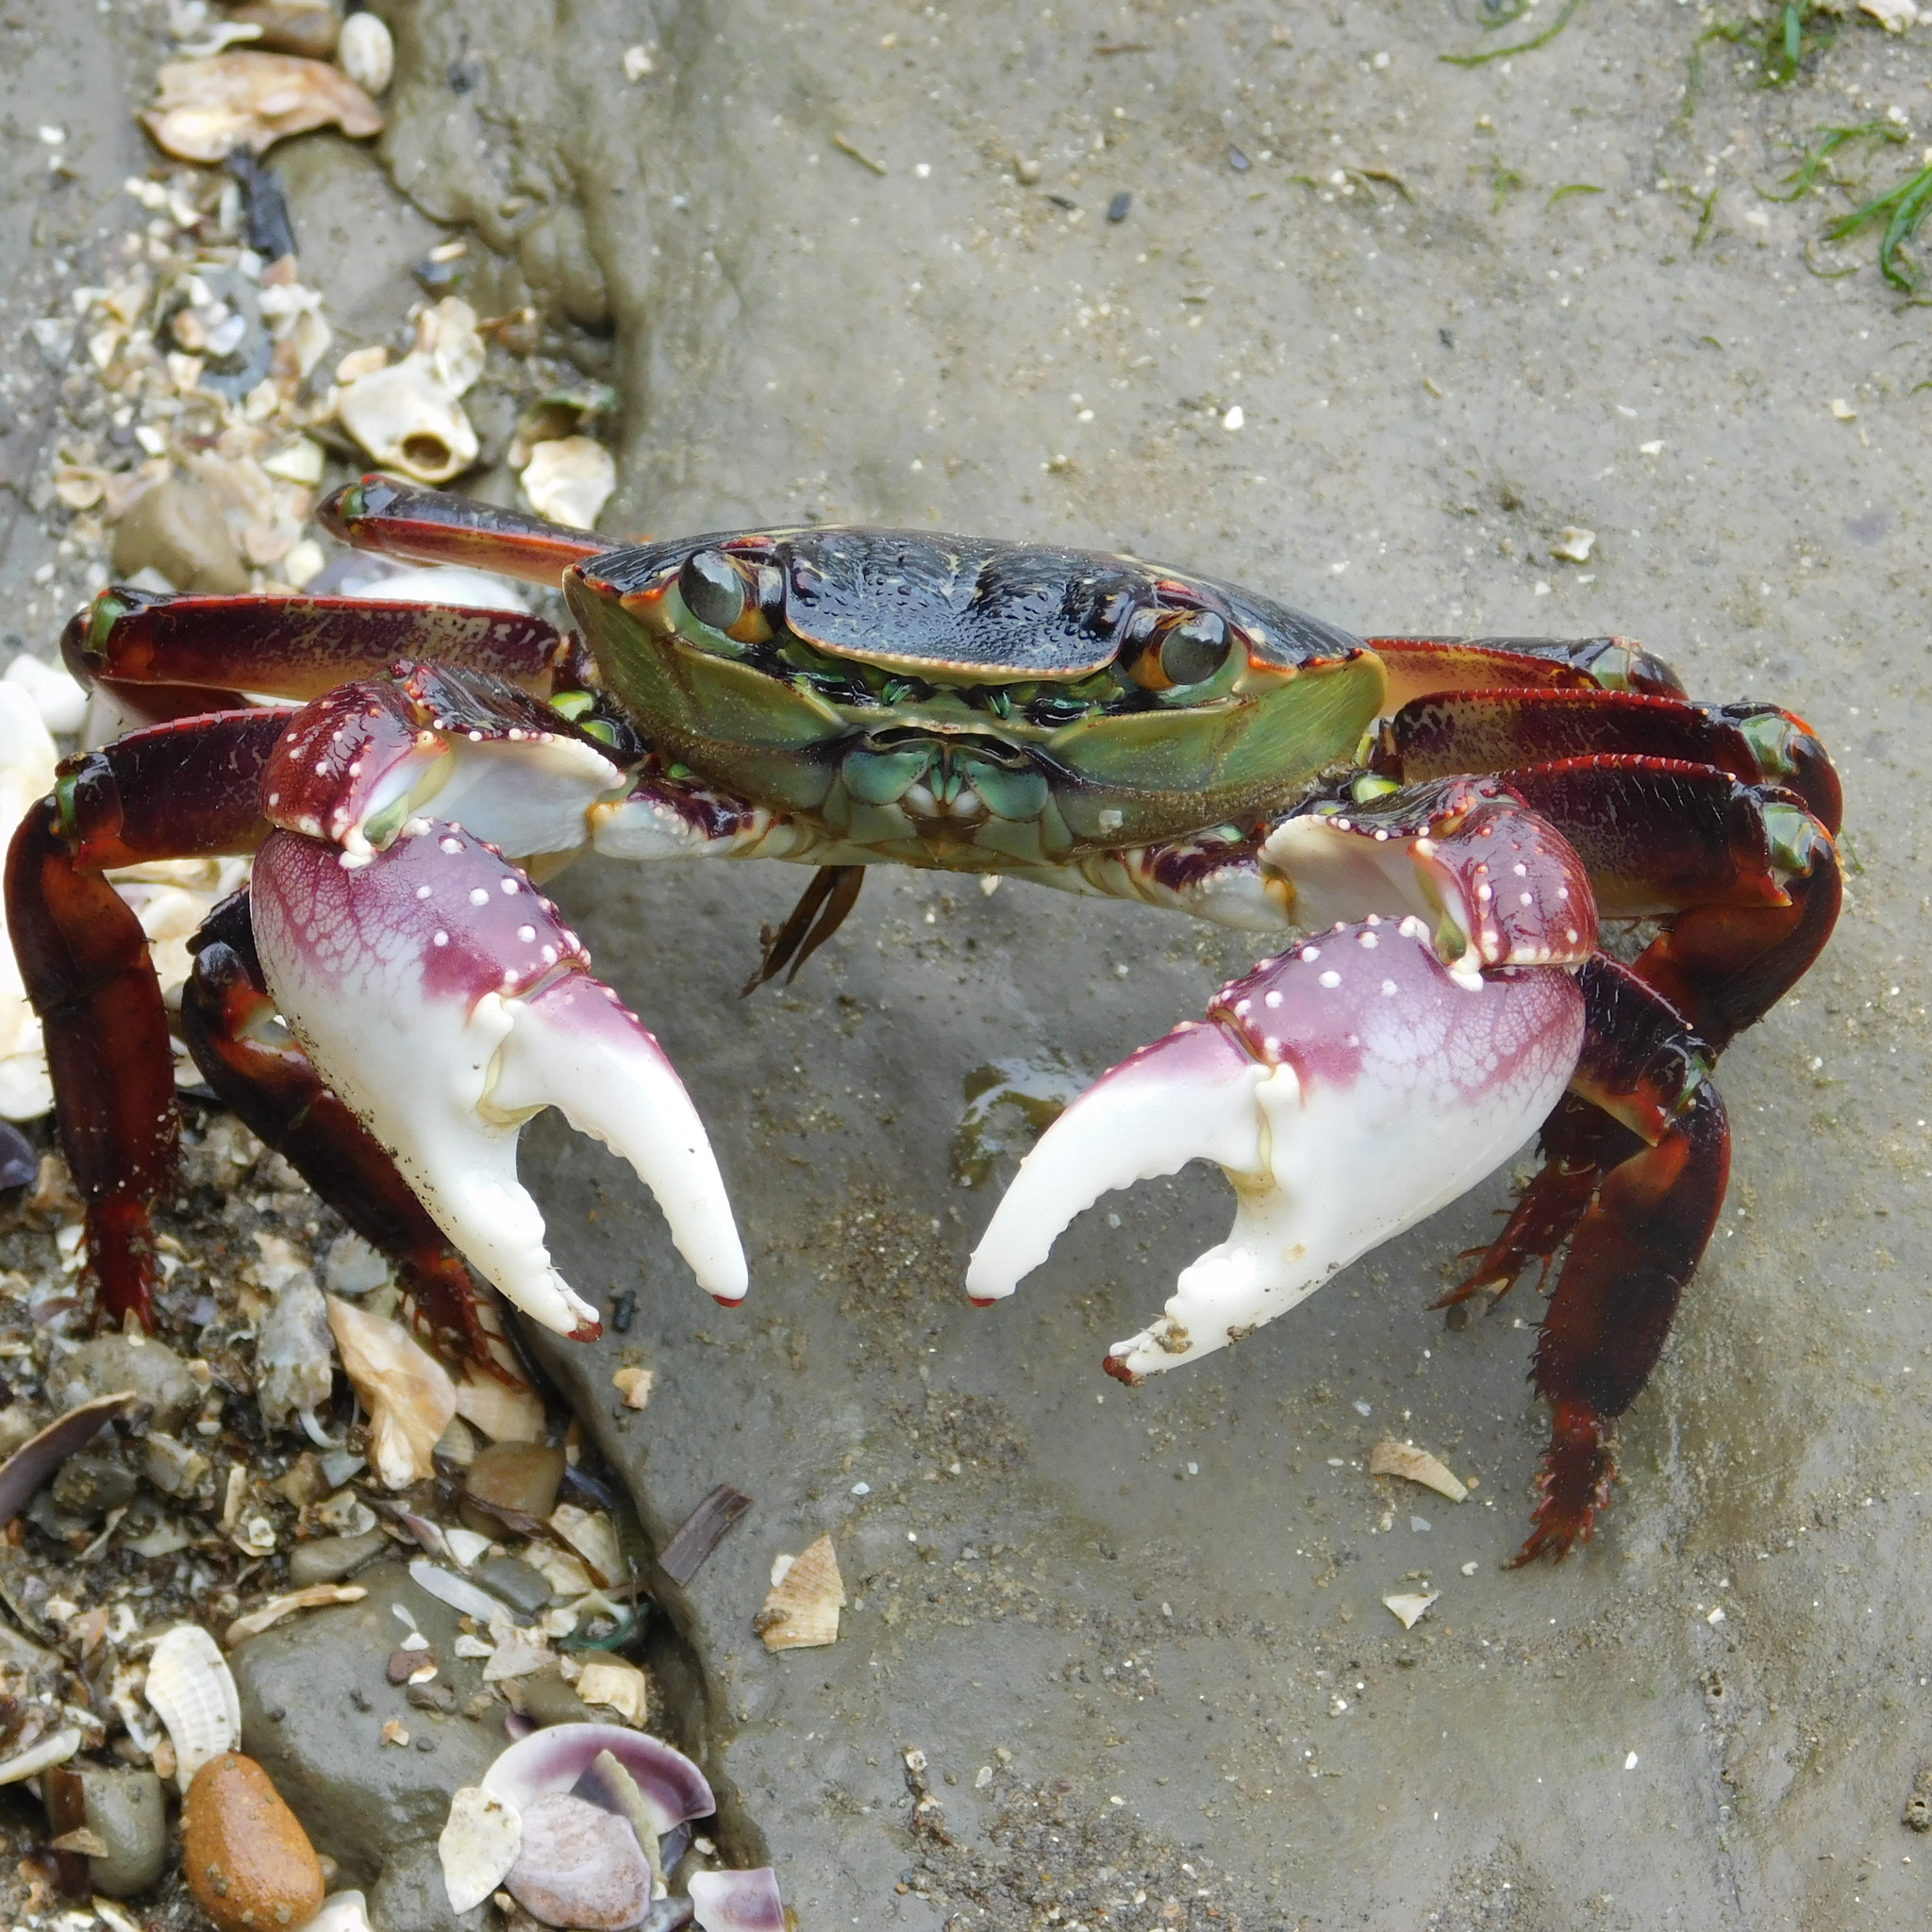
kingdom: Animalia
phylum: Arthropoda
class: Malacostraca
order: Decapoda
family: Grapsidae
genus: Leptograpsus
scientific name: Leptograpsus variegatus
